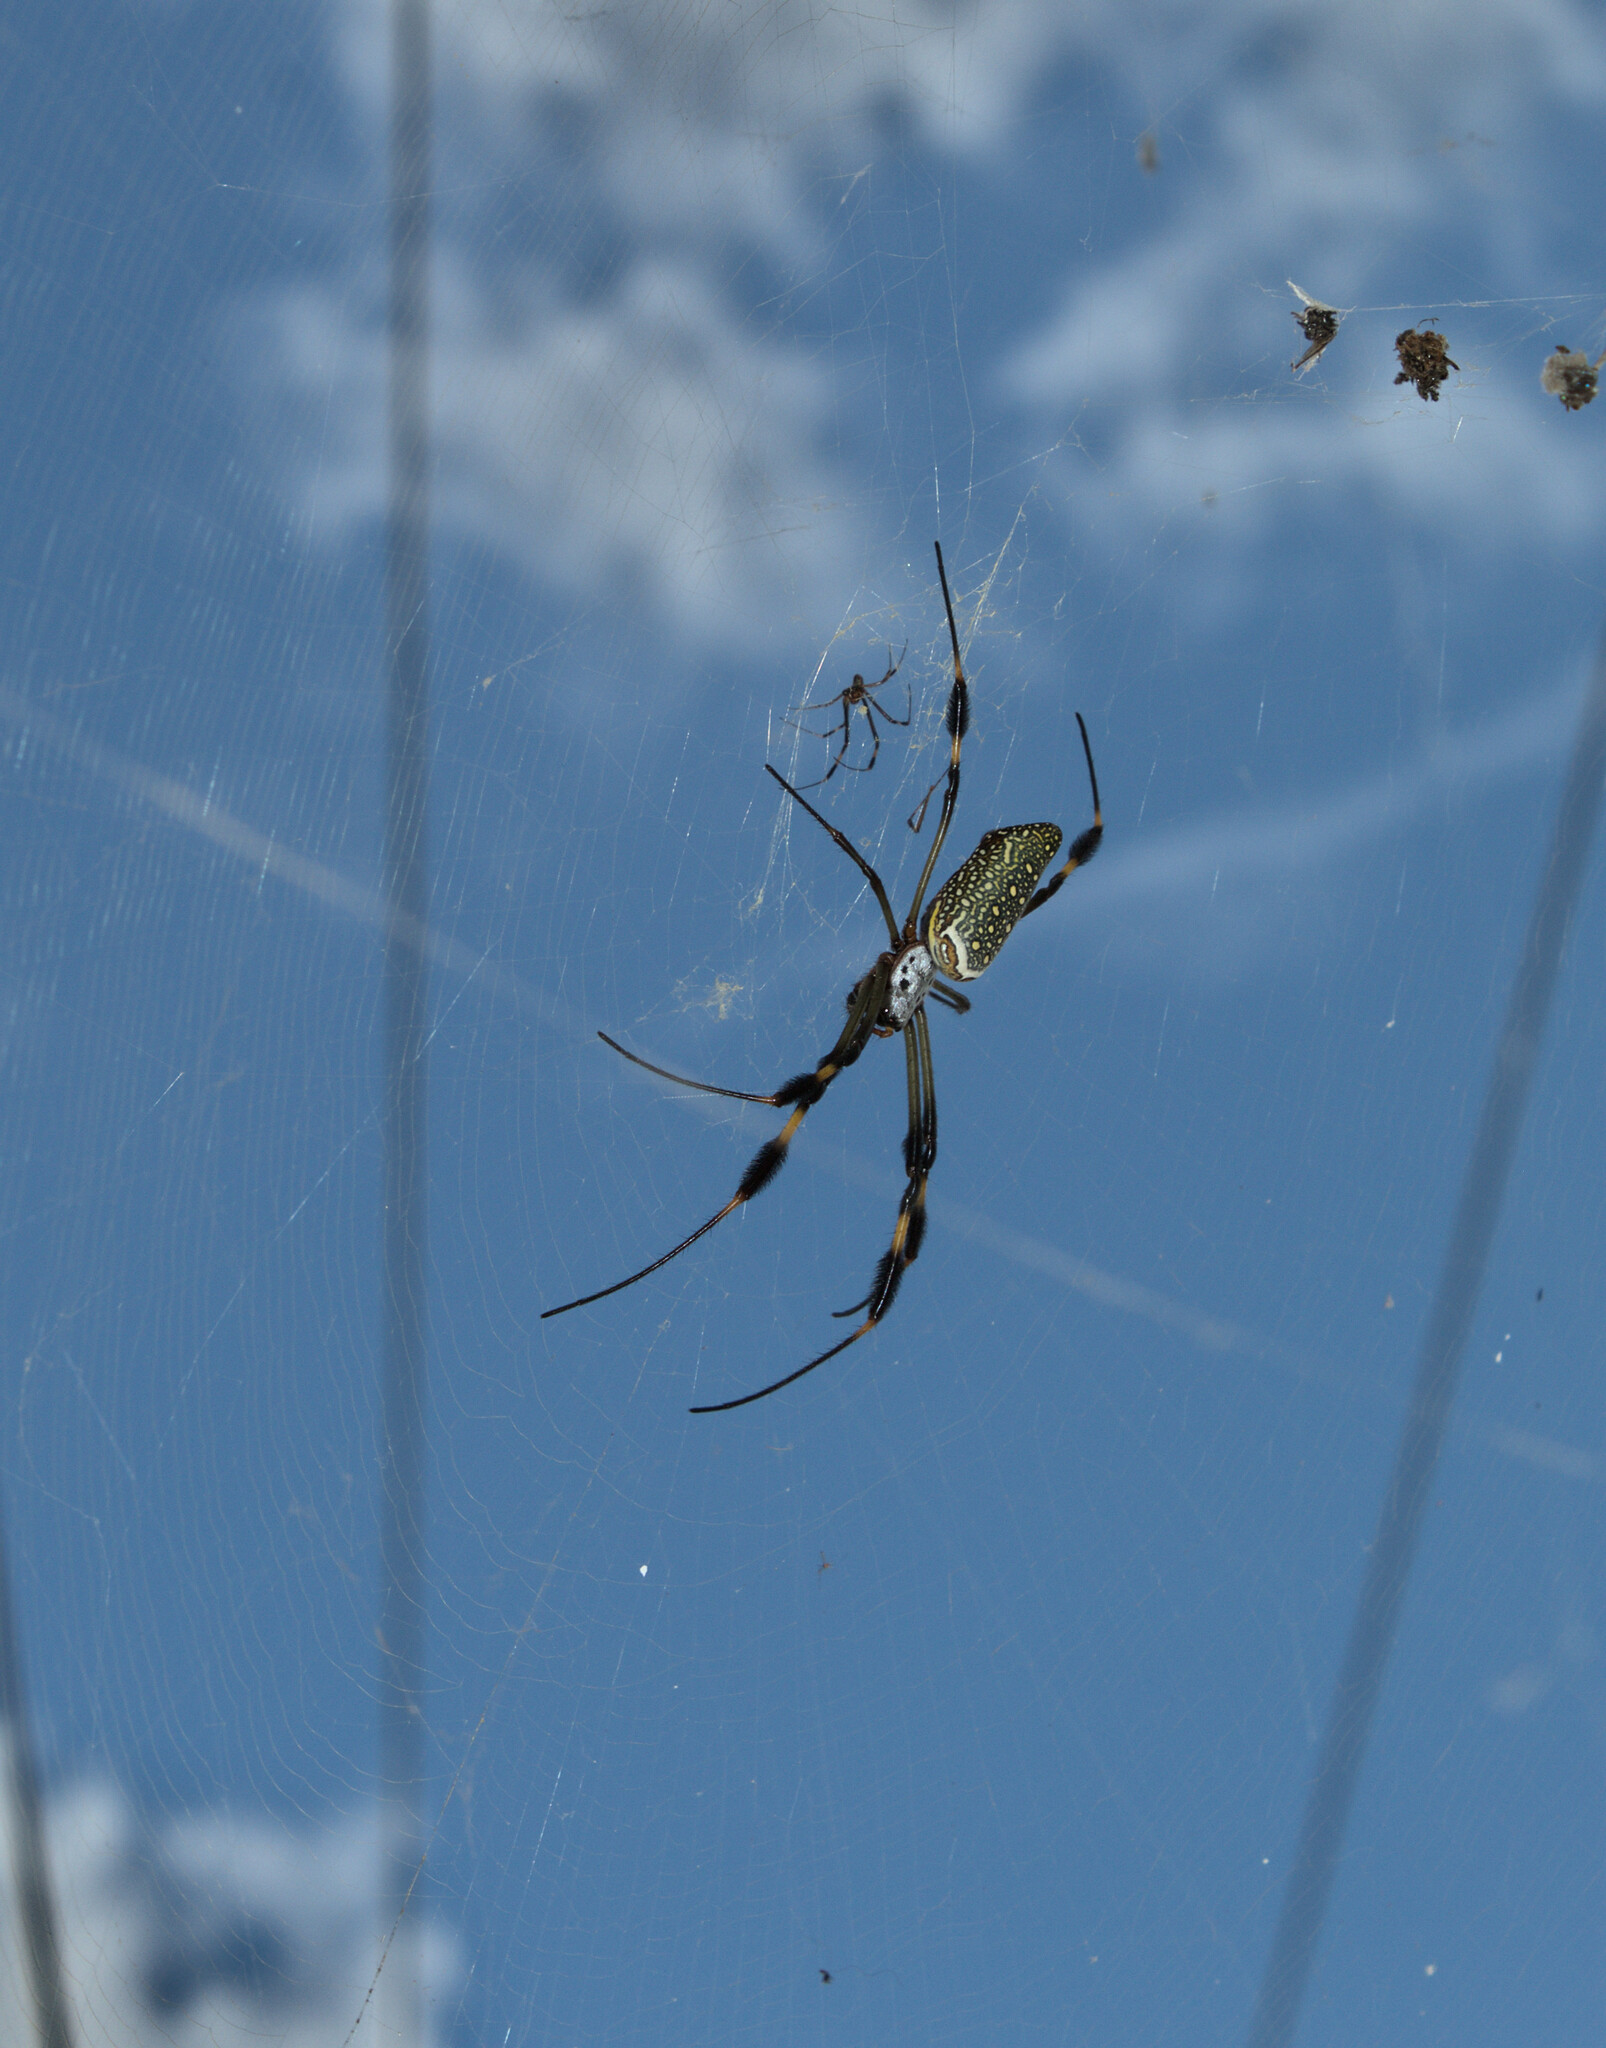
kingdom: Animalia
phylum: Arthropoda
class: Arachnida
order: Araneae
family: Araneidae
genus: Trichonephila
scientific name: Trichonephila clavipes
